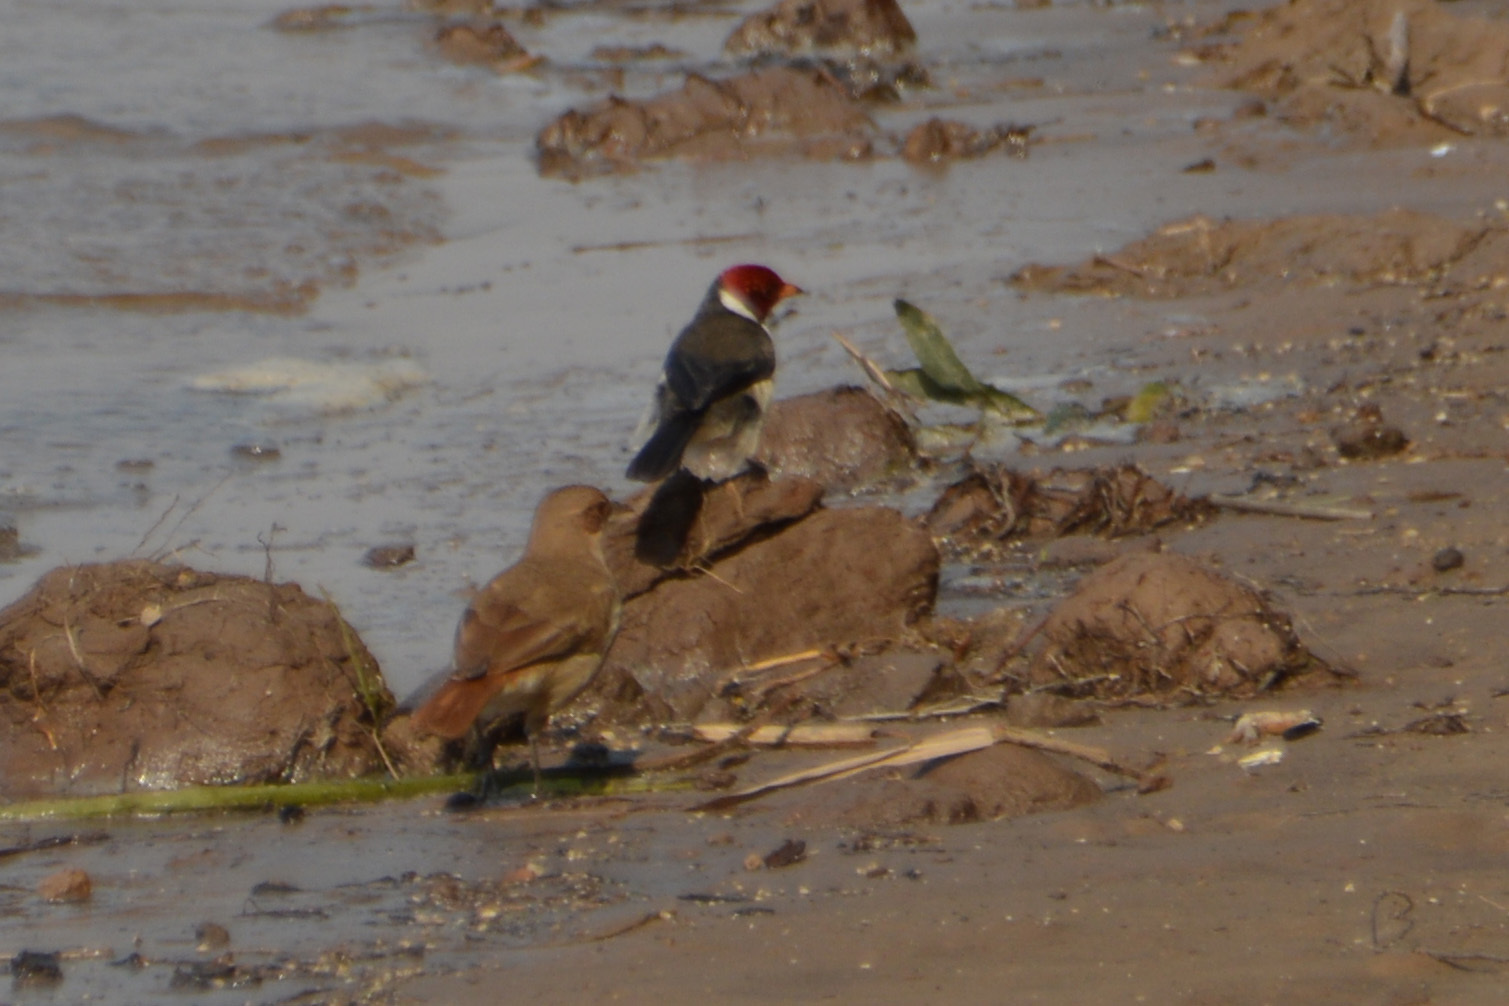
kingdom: Animalia
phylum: Chordata
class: Aves
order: Passeriformes
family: Thraupidae
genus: Paroaria
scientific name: Paroaria capitata
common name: Yellow-billed cardinal
